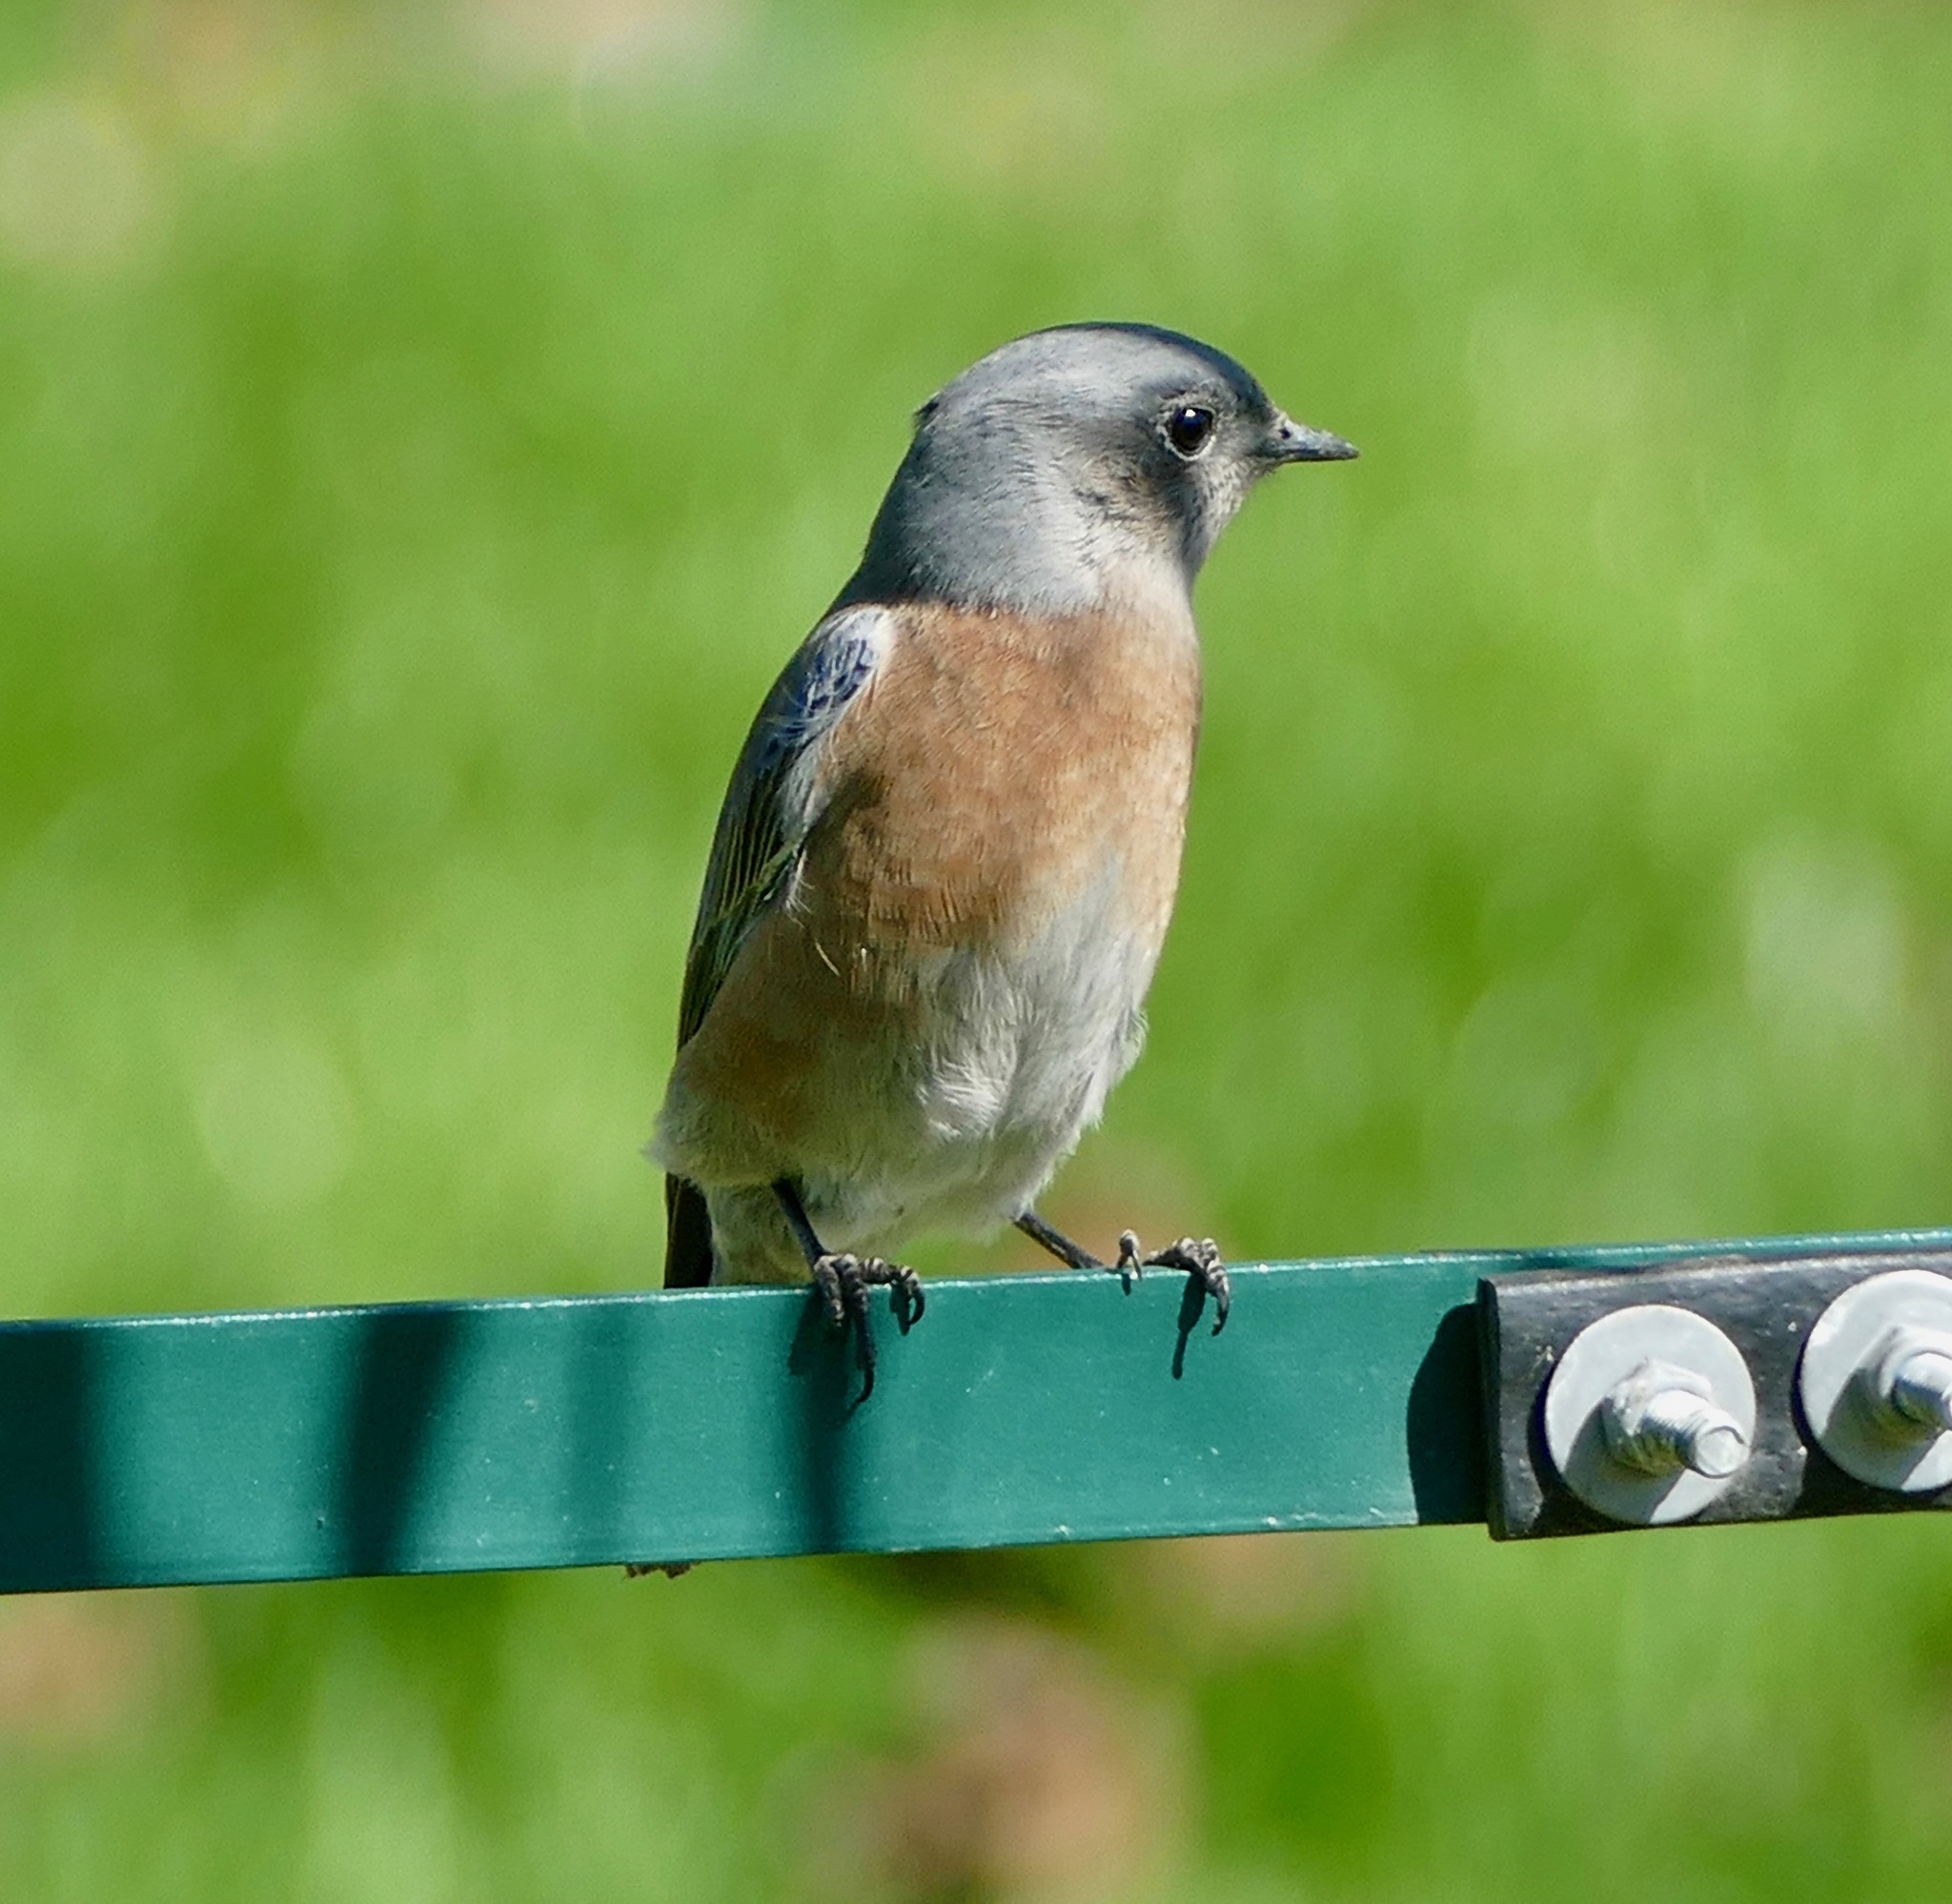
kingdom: Animalia
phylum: Chordata
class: Aves
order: Passeriformes
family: Turdidae
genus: Sialia
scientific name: Sialia mexicana
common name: Western bluebird
